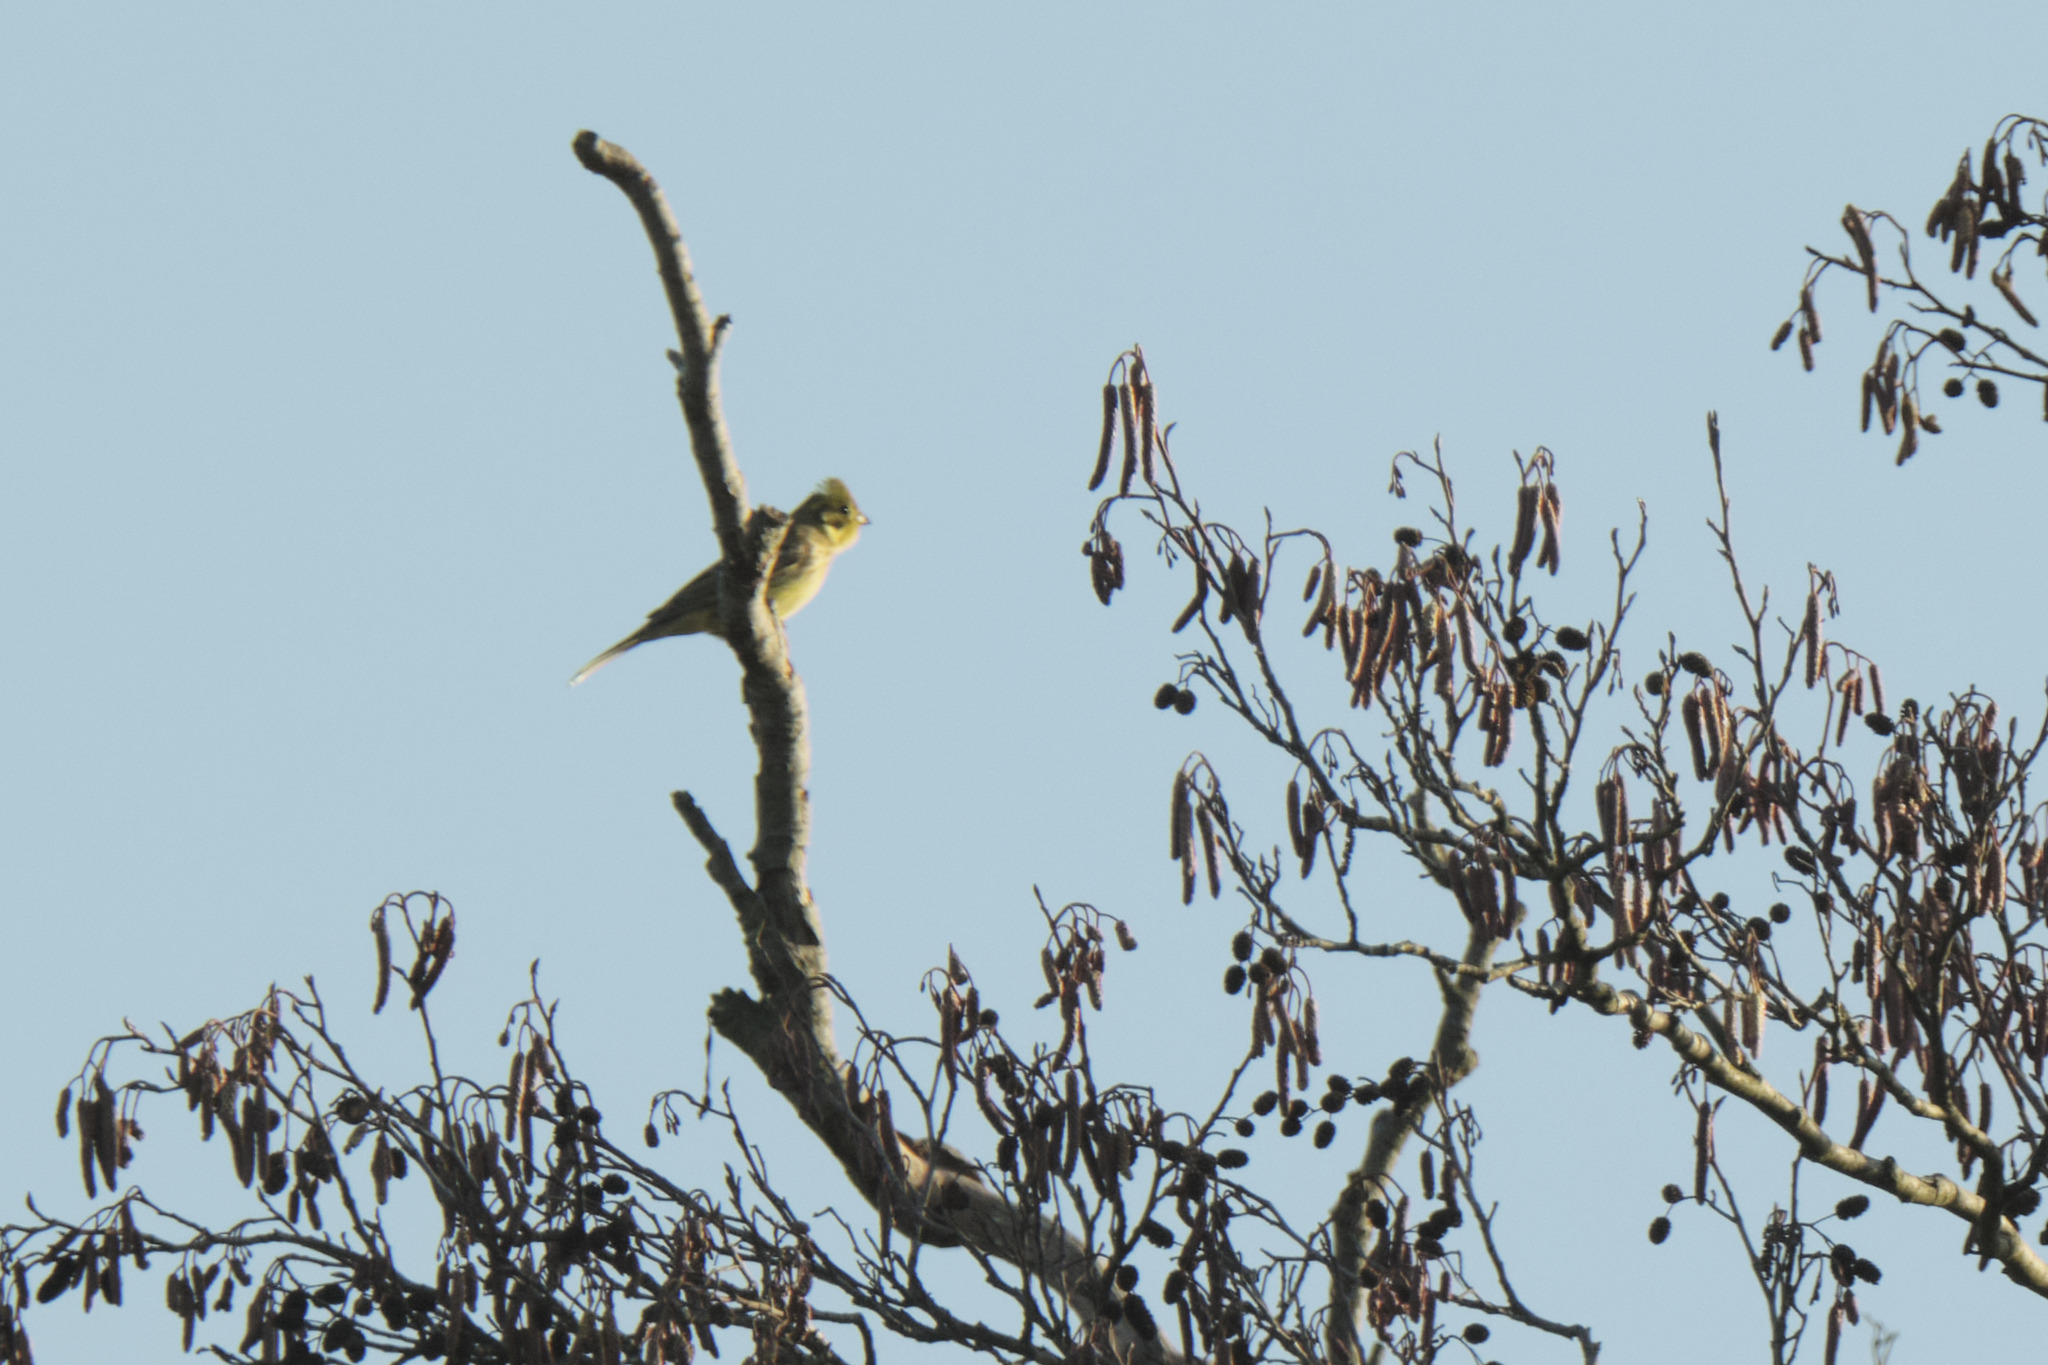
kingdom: Animalia
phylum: Chordata
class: Aves
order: Passeriformes
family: Emberizidae
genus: Emberiza
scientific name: Emberiza citrinella
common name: Yellowhammer
